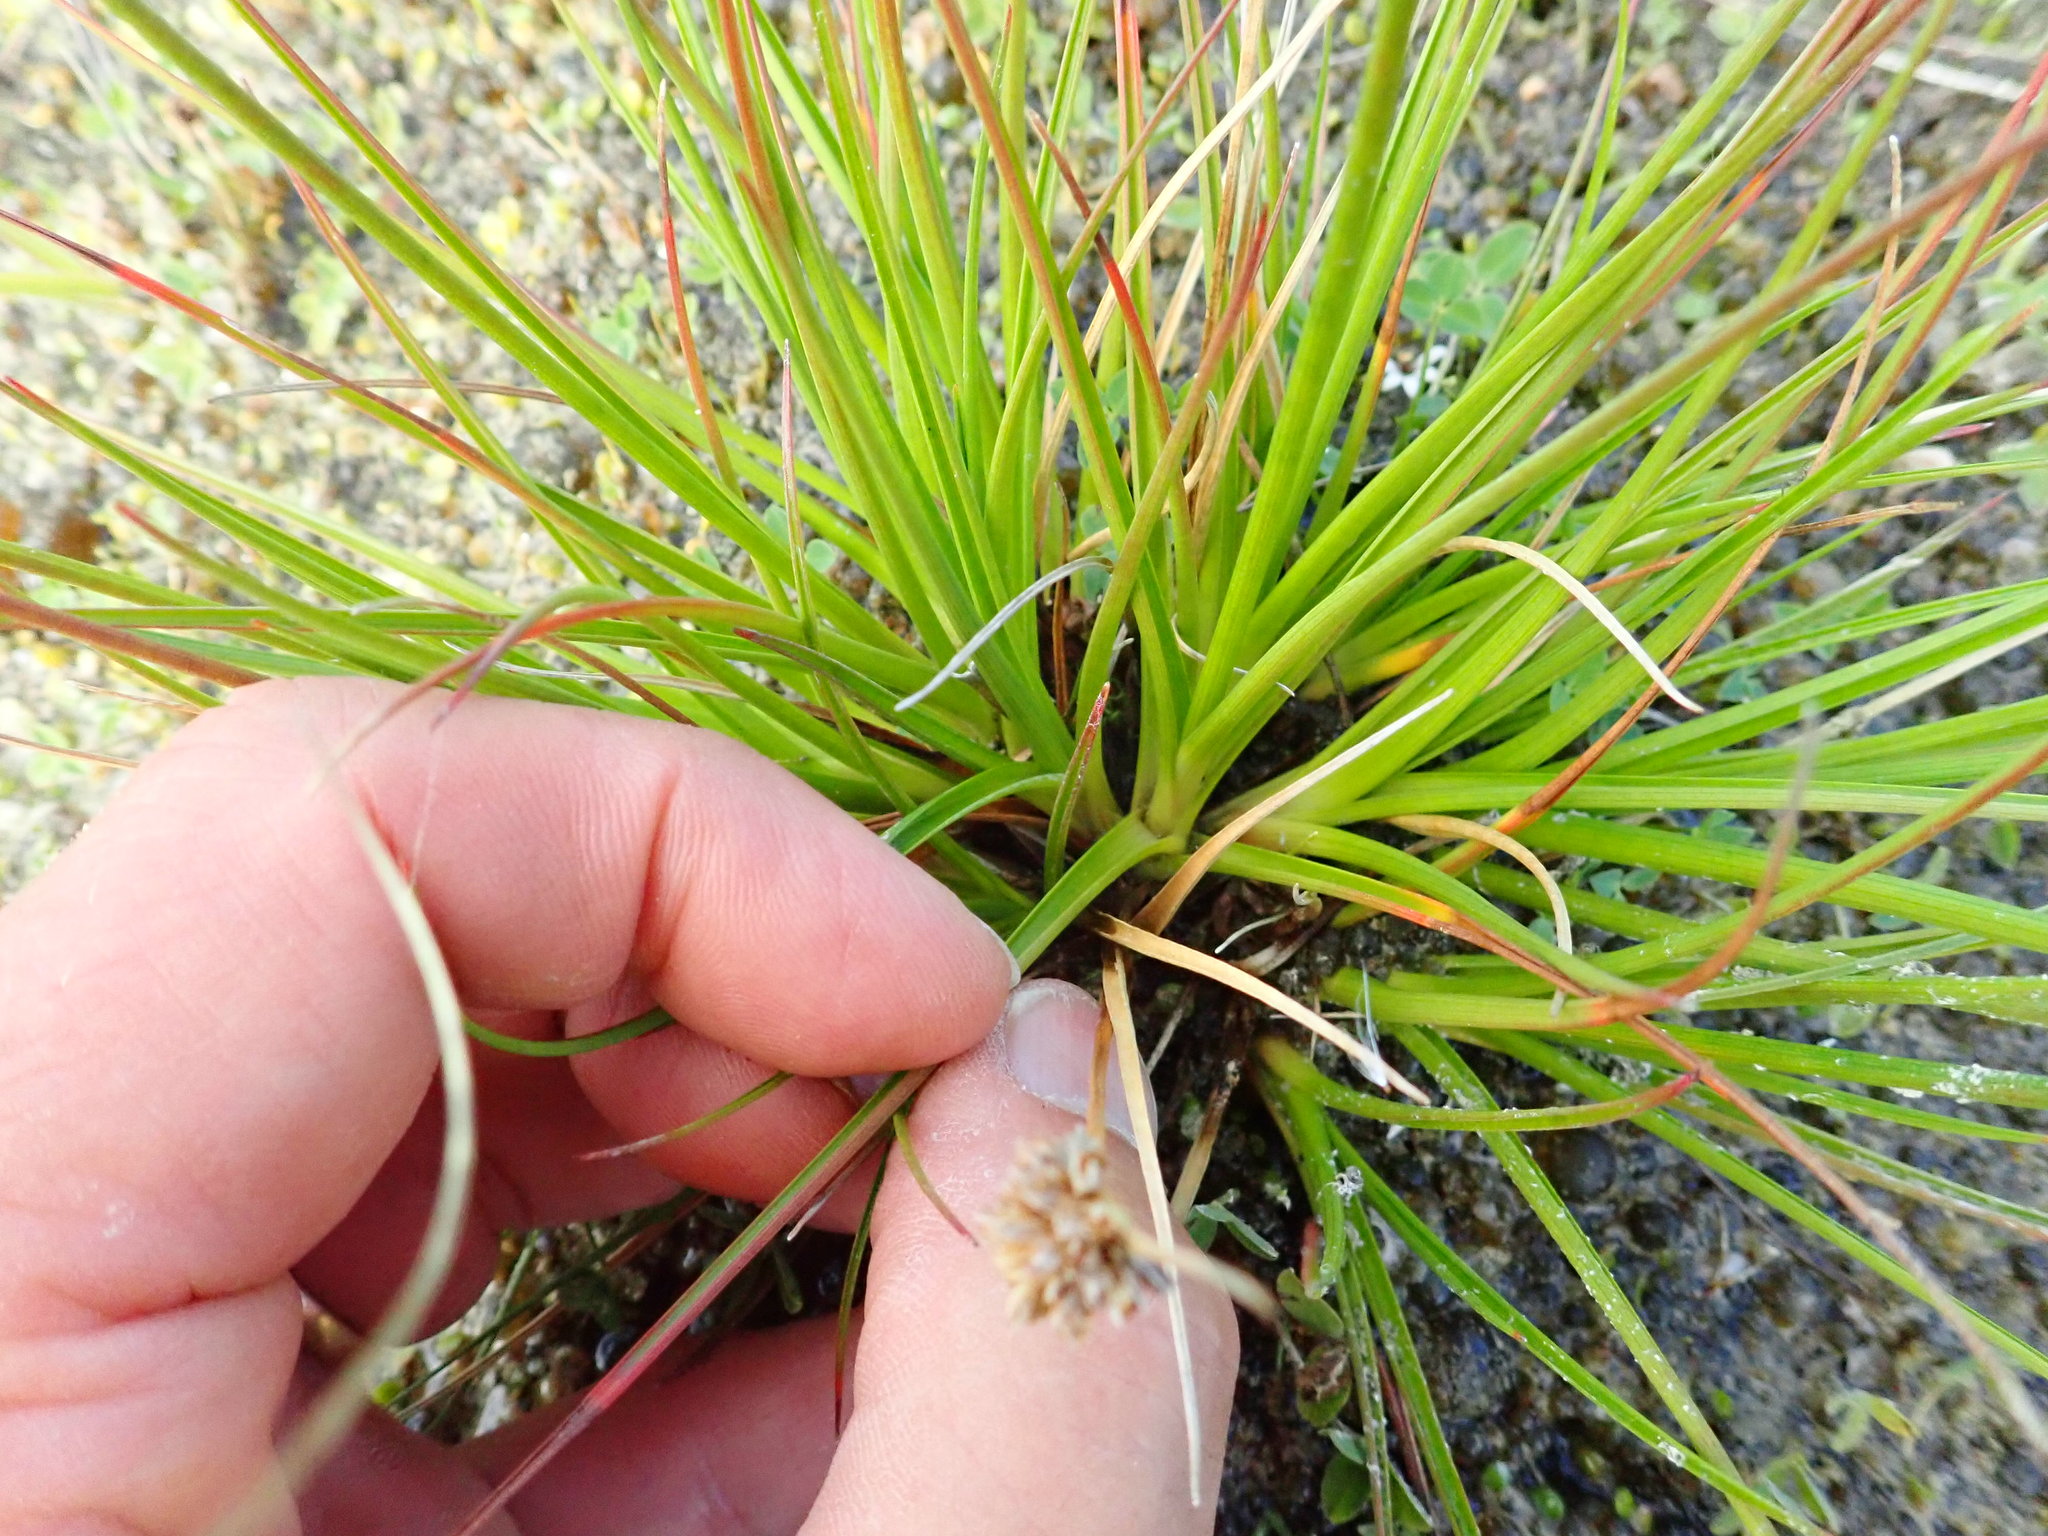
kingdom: Plantae
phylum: Tracheophyta
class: Liliopsida
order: Poales
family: Juncaceae
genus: Juncus
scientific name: Juncus caespiticius
